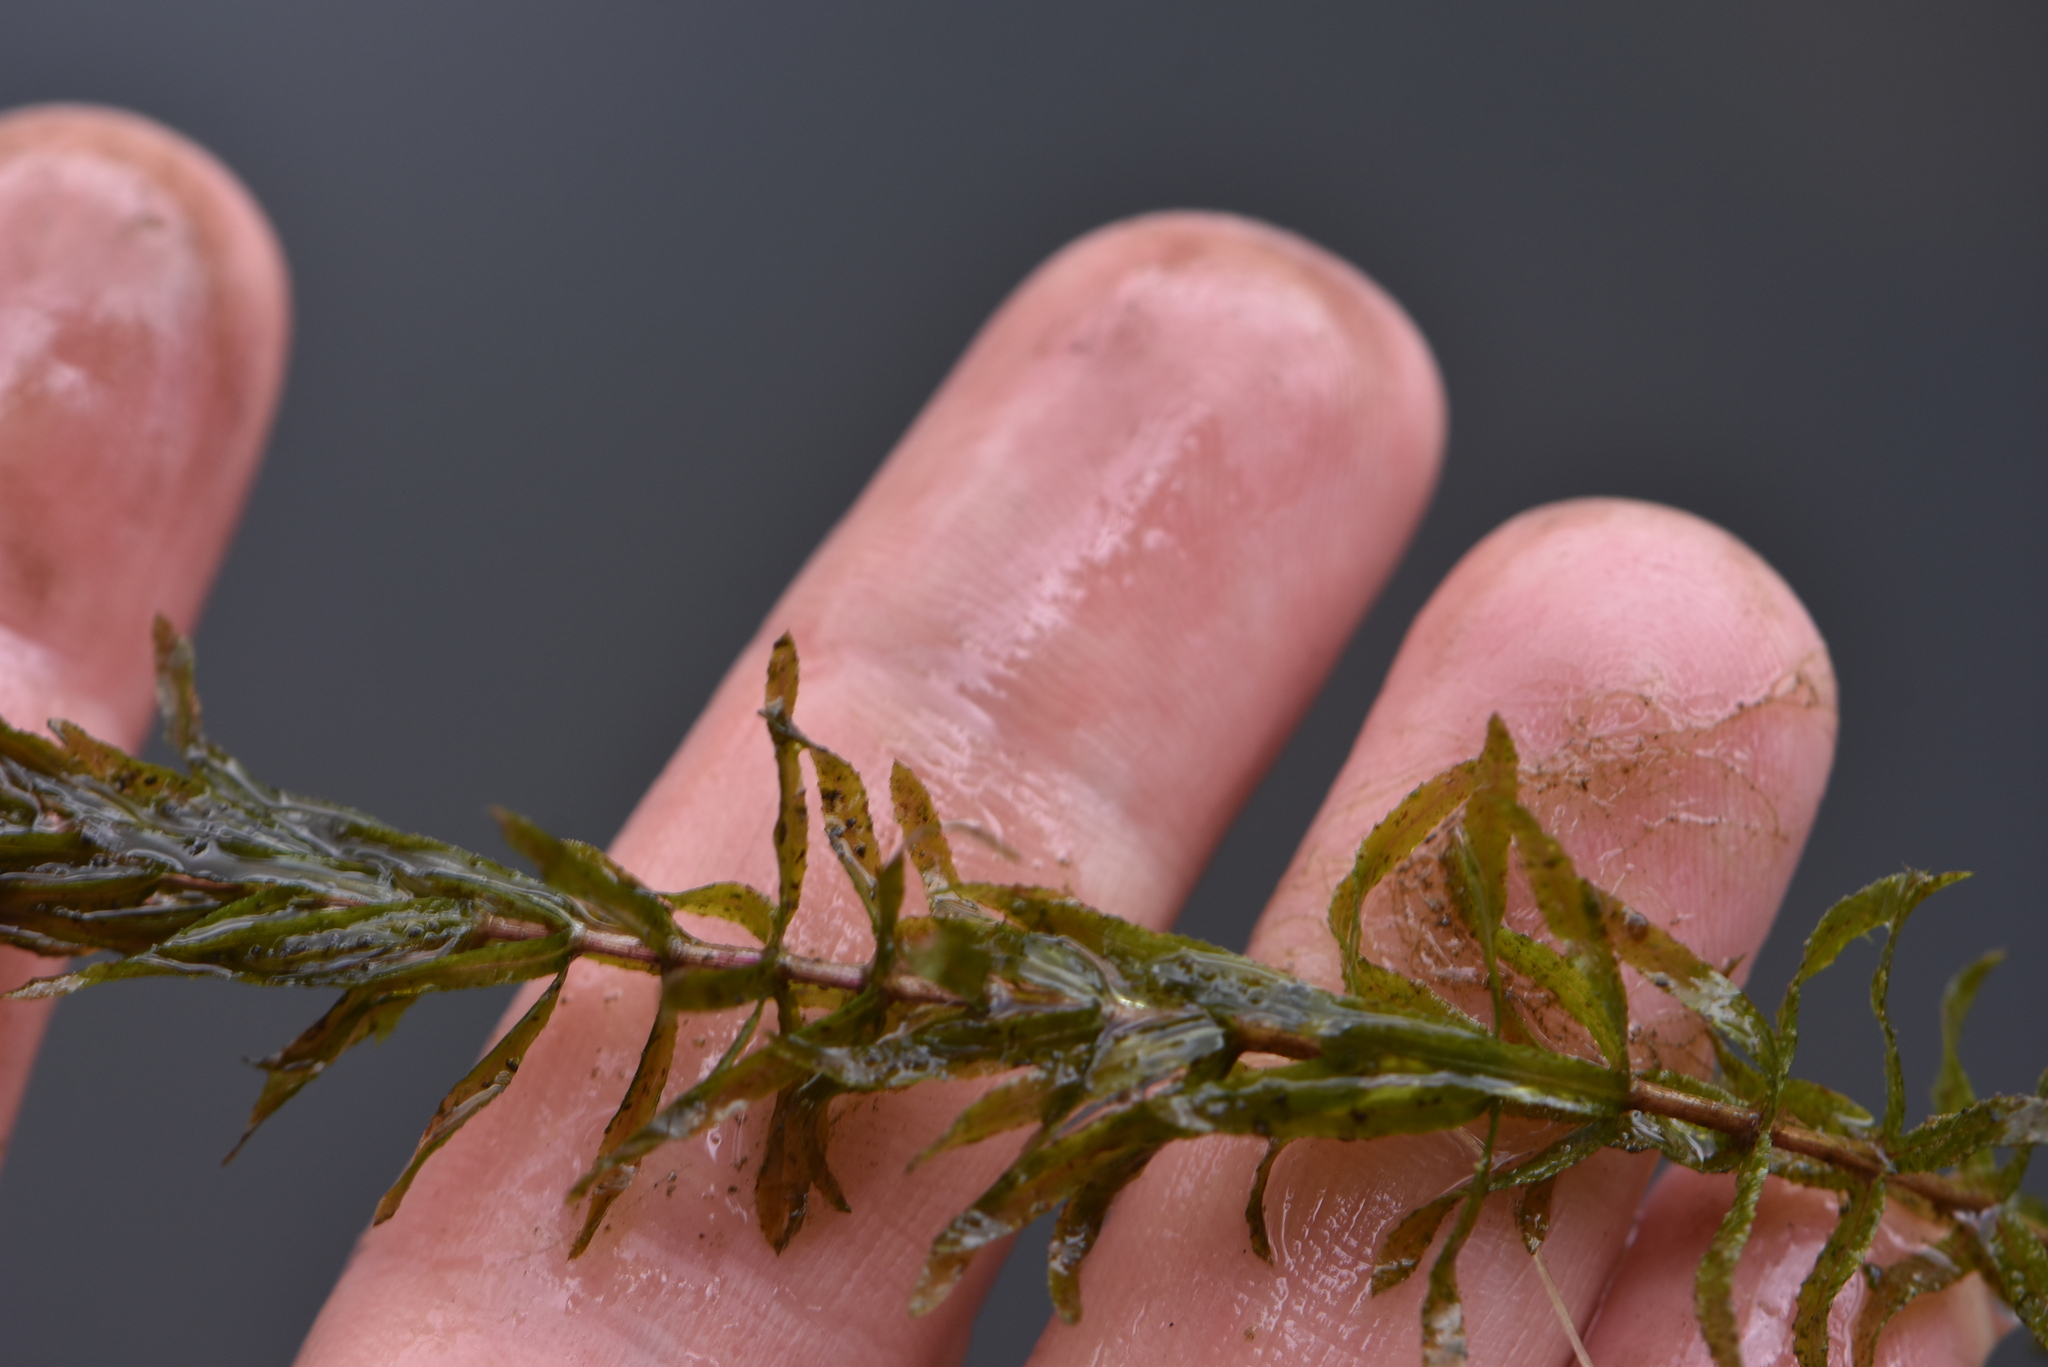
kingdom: Plantae
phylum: Tracheophyta
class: Liliopsida
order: Alismatales
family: Hydrocharitaceae
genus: Hydrilla
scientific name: Hydrilla verticillata
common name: Florida-elodea
